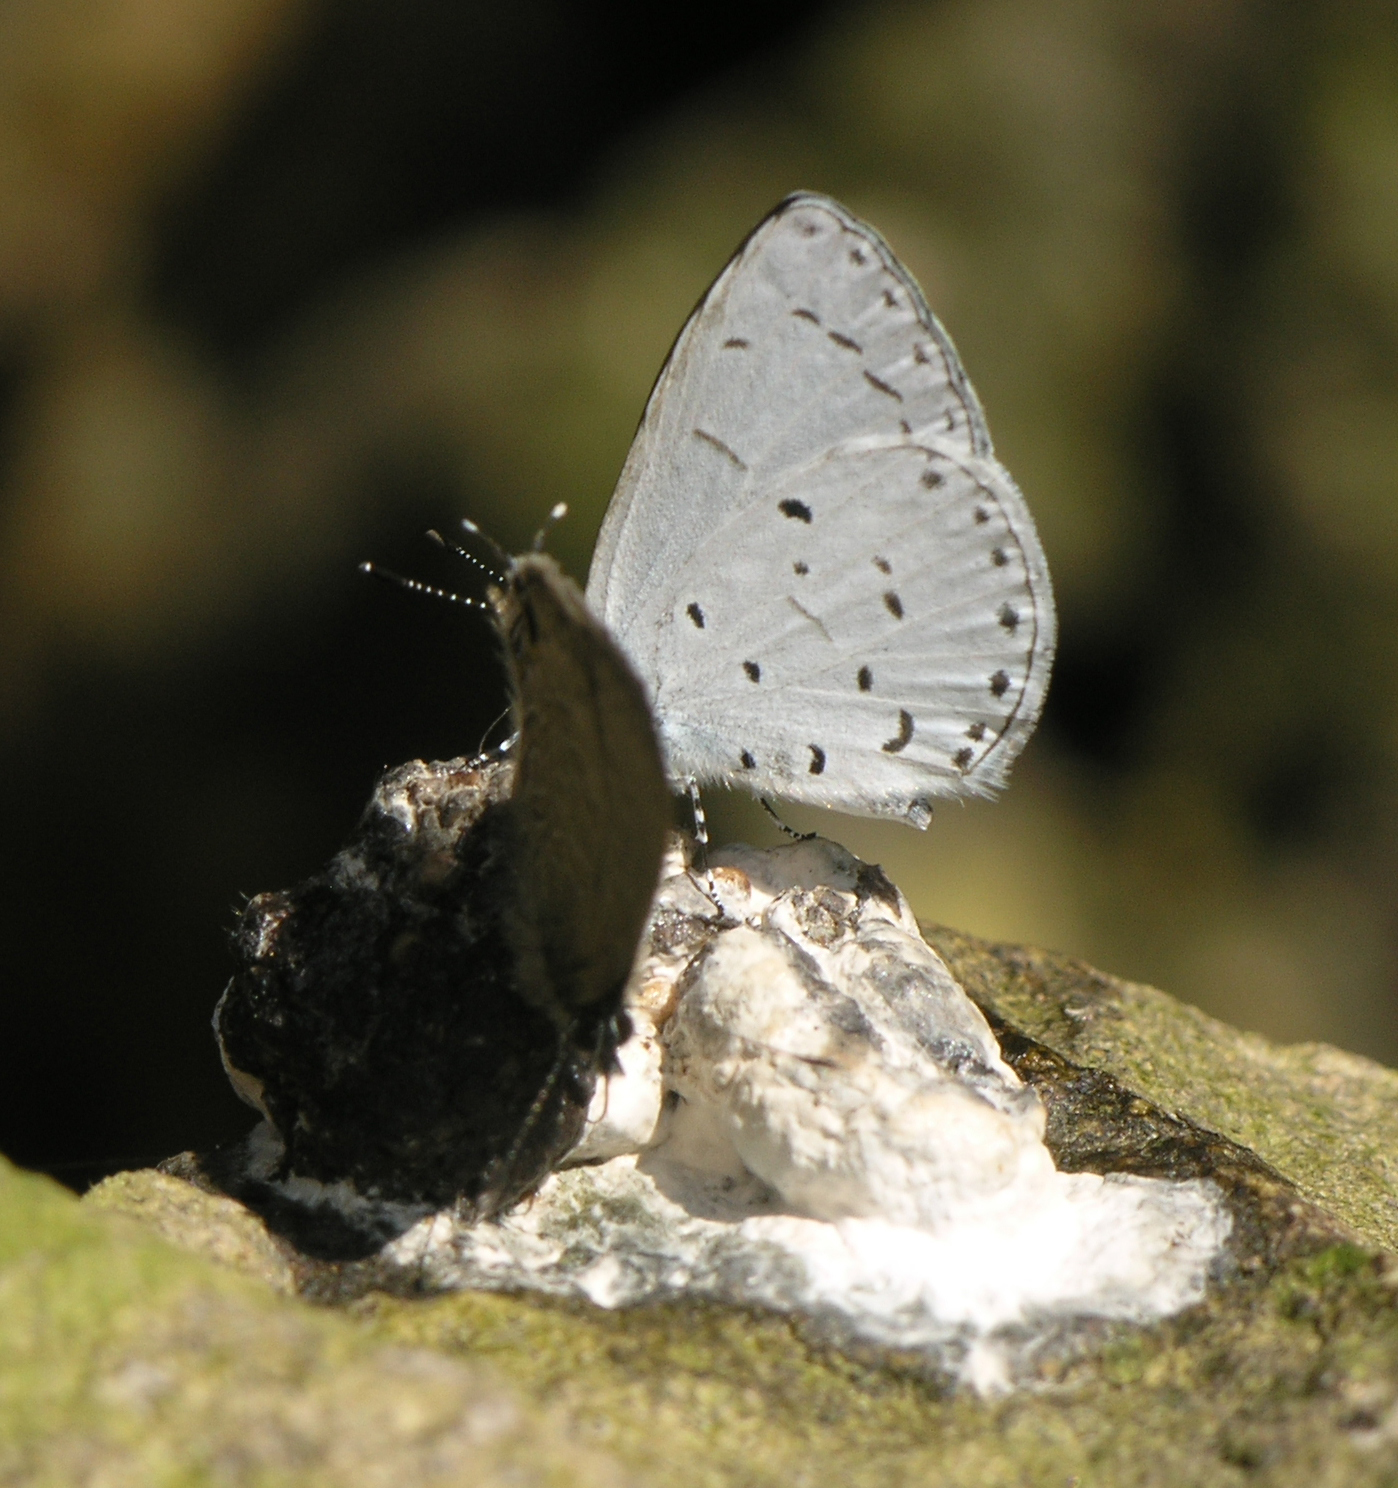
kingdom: Animalia
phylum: Arthropoda
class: Insecta
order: Lepidoptera
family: Lycaenidae
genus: Udara
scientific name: Udara
